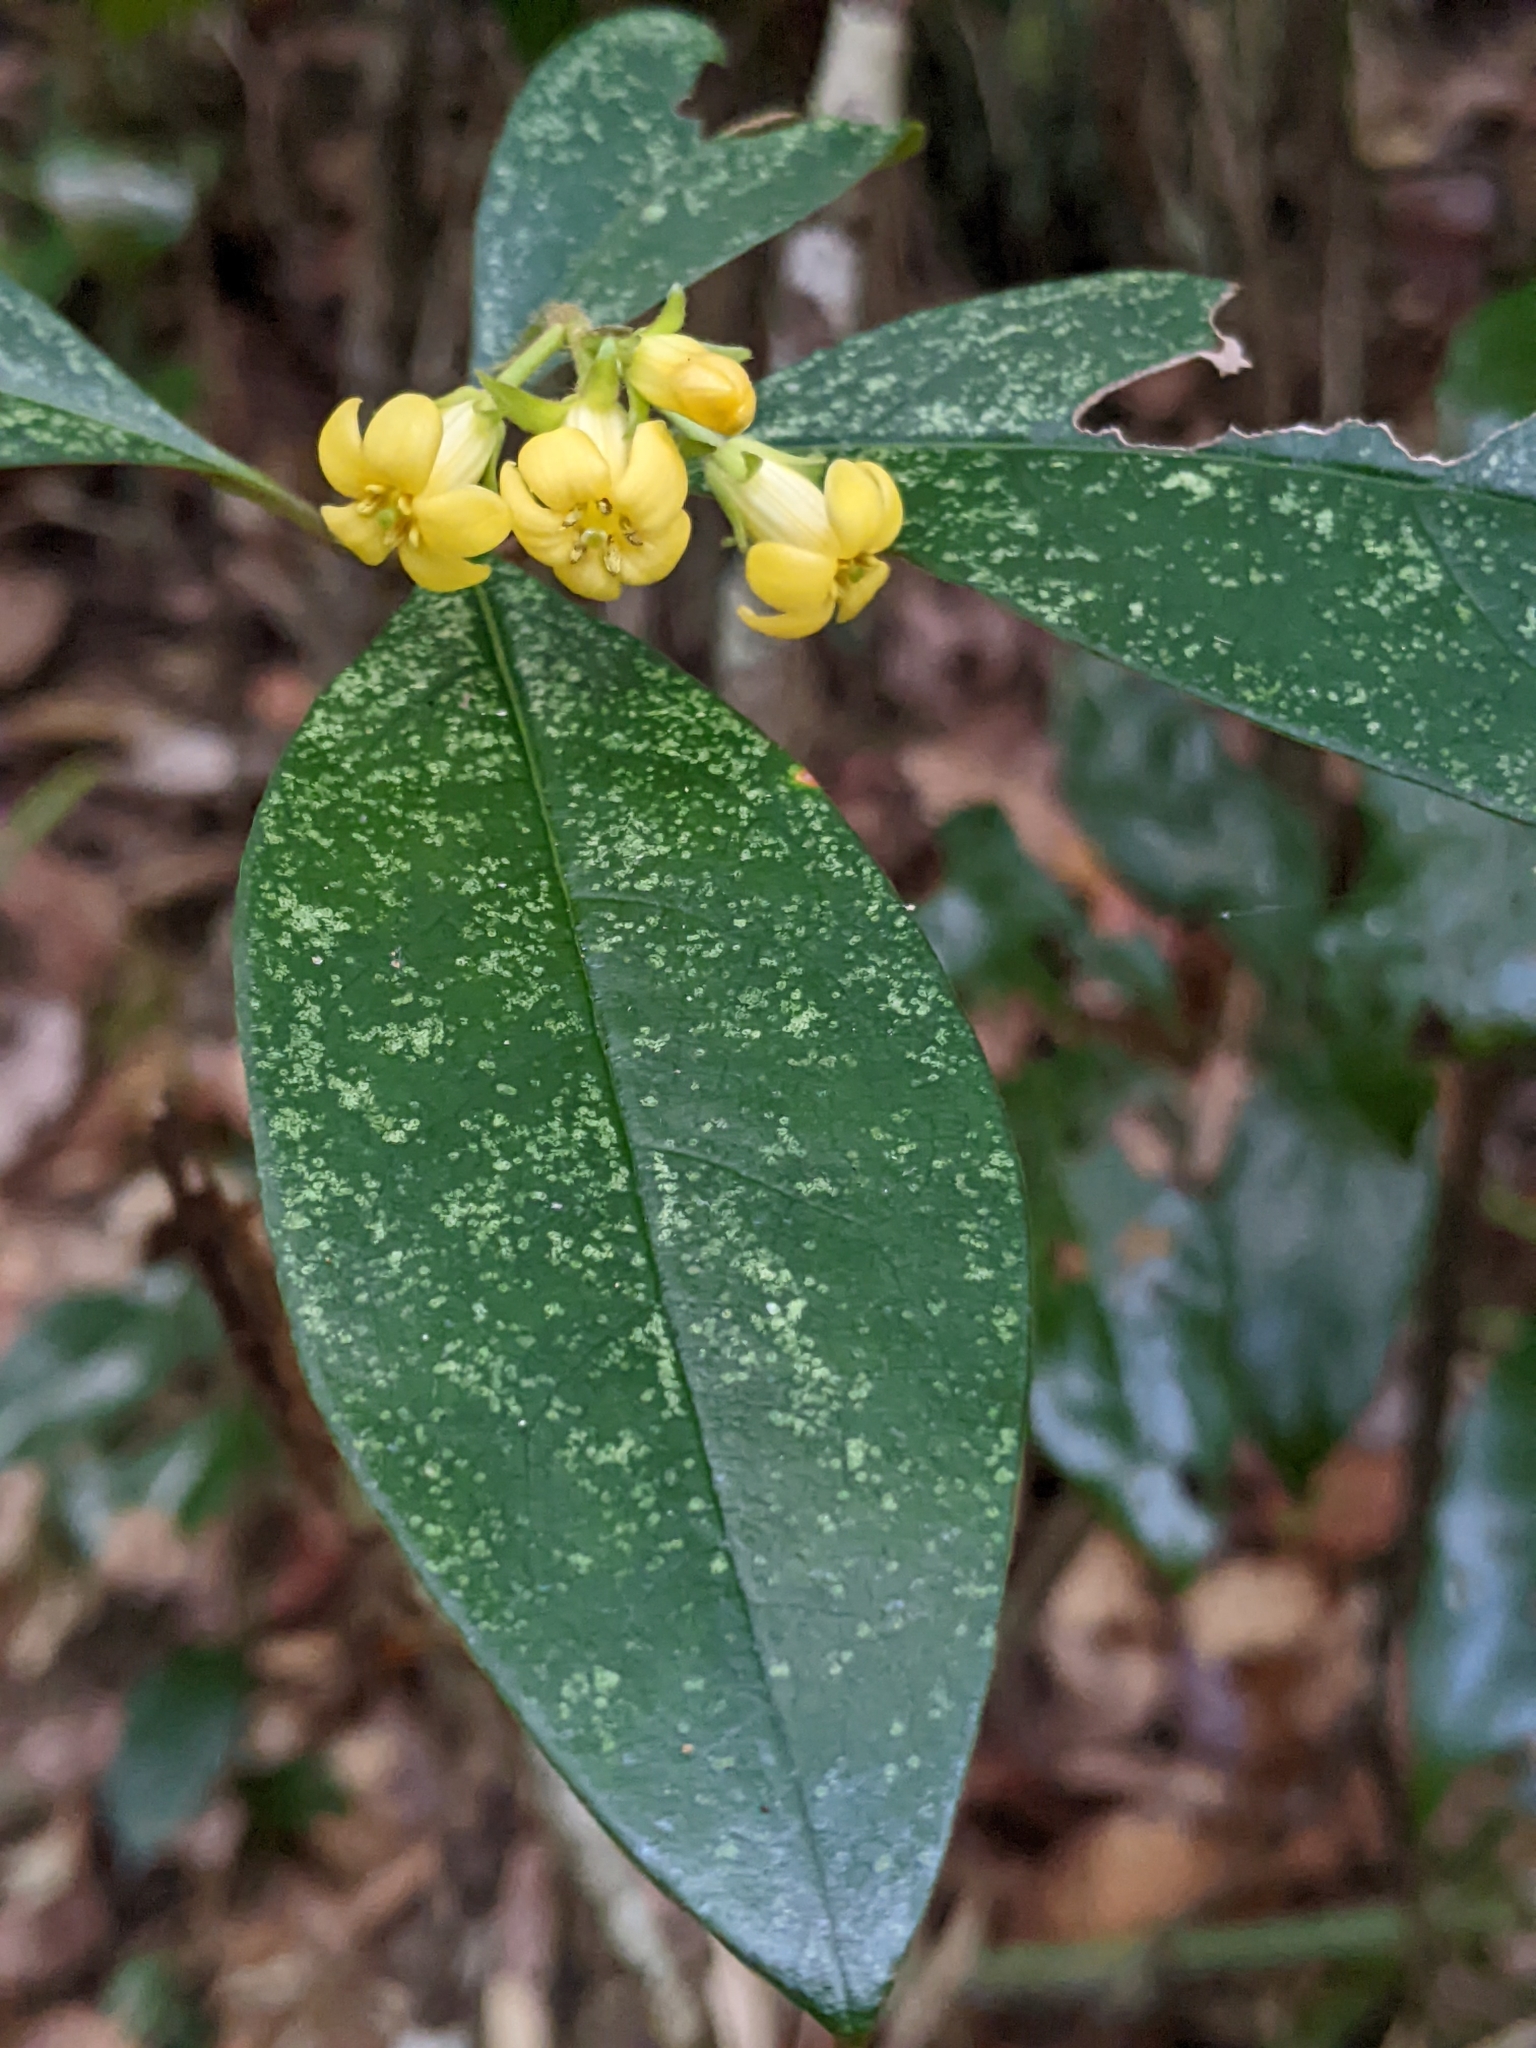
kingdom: Plantae
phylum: Tracheophyta
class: Magnoliopsida
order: Apiales
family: Pittosporaceae
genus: Pittosporum
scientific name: Pittosporum revolutum
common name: Brisbane-laurel
